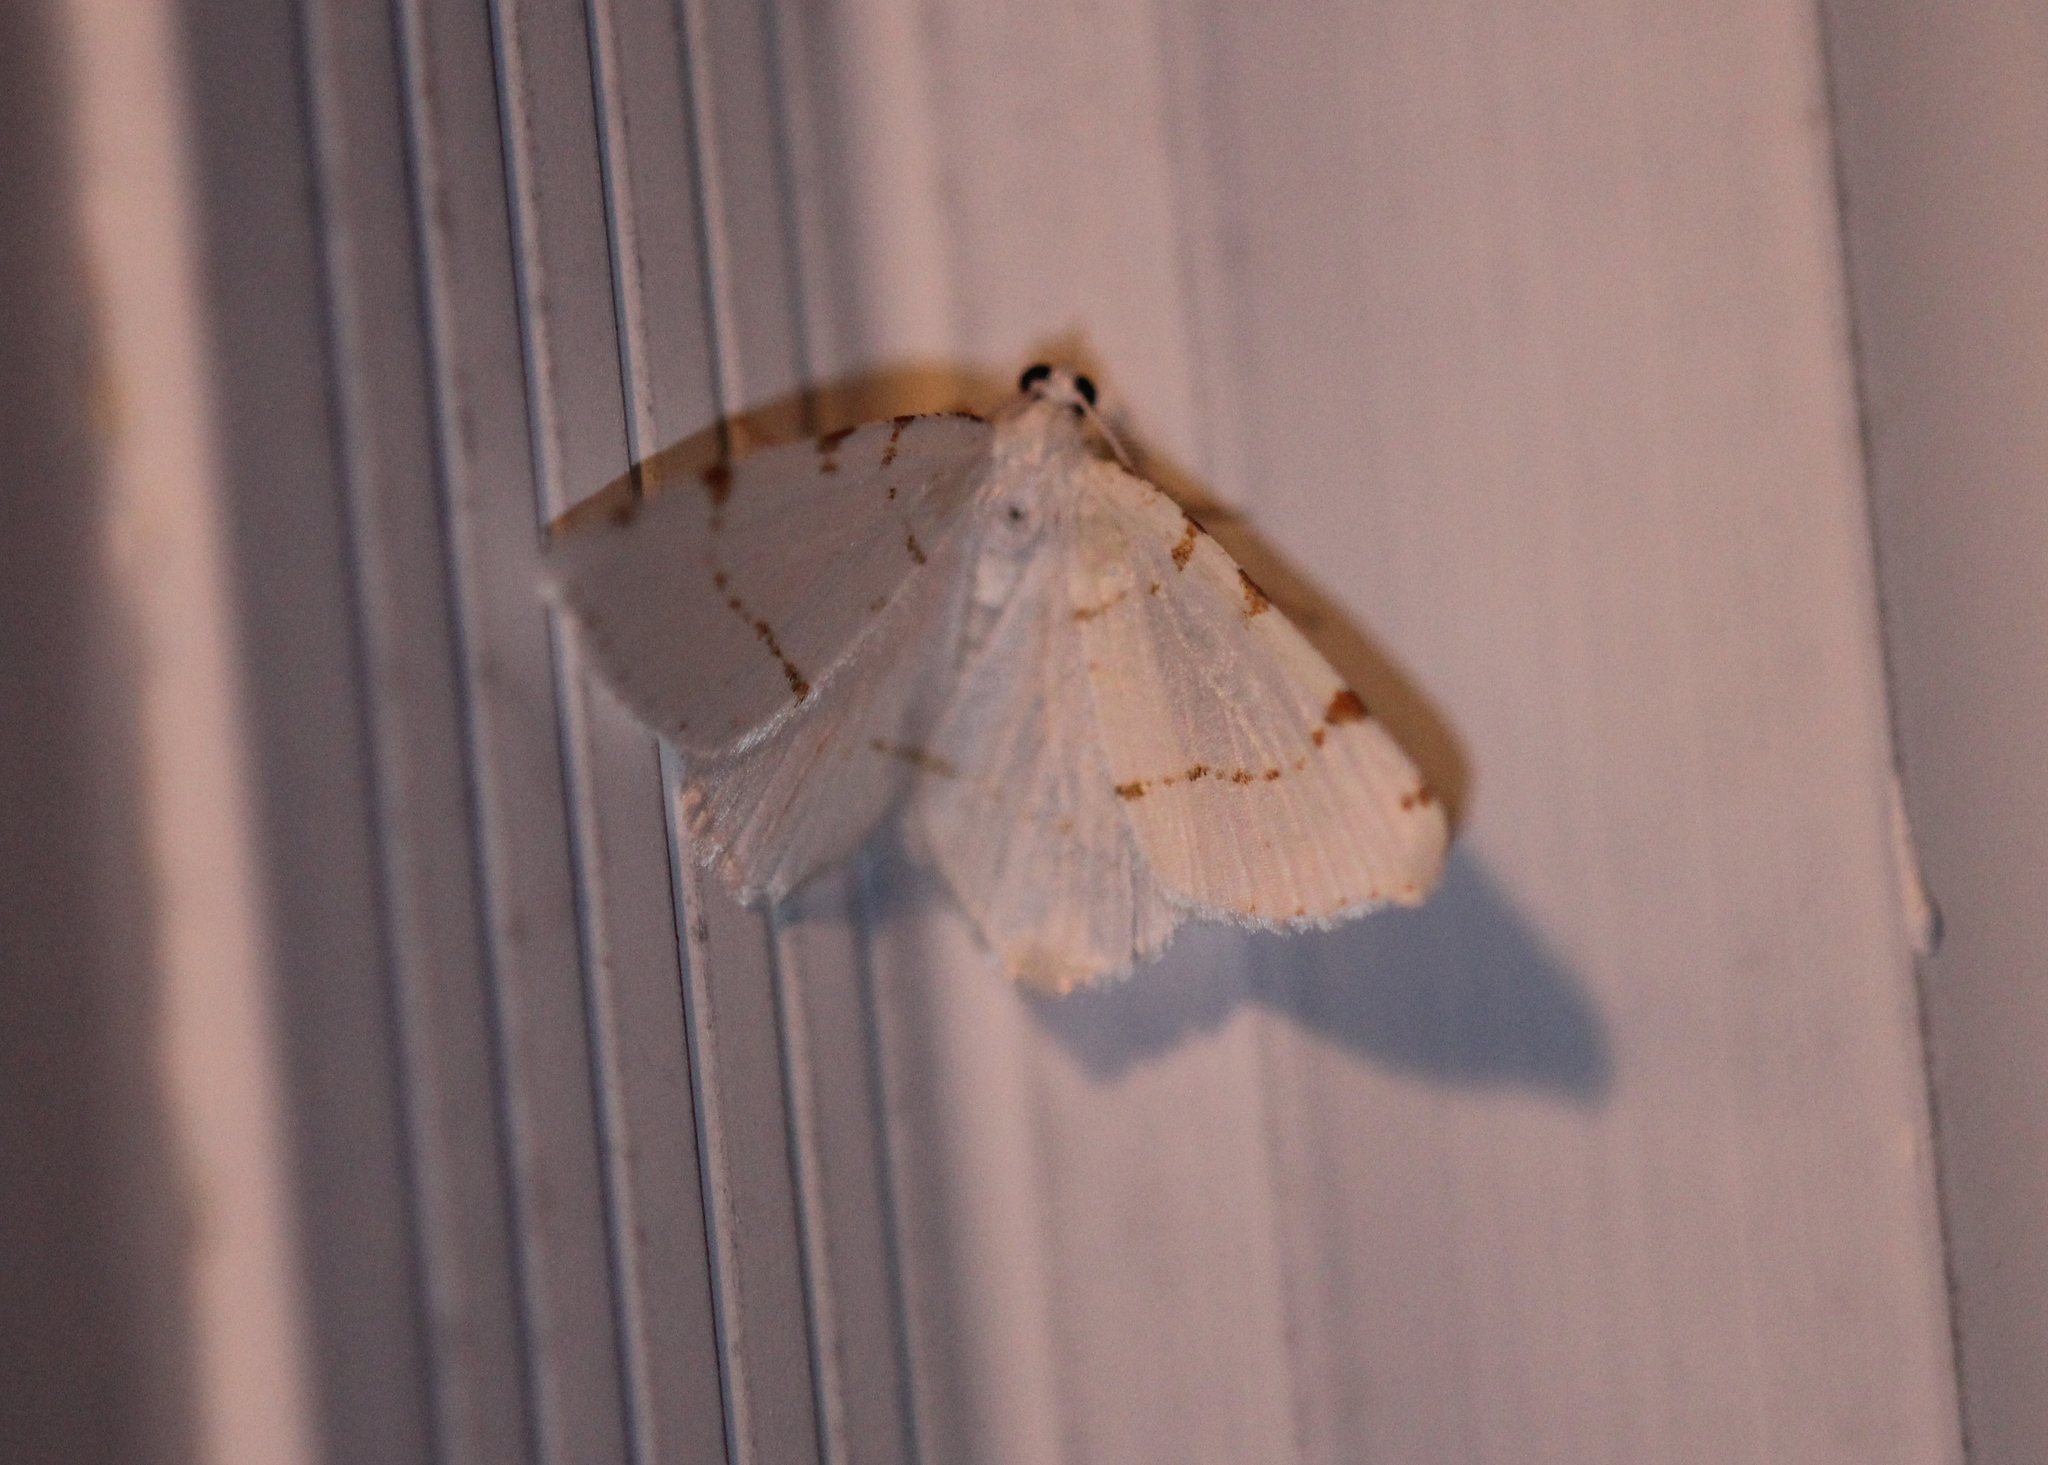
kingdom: Animalia
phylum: Arthropoda
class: Insecta
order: Lepidoptera
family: Geometridae
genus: Macaria
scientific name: Macaria pustularia
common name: Lesser maple spanworm moth
